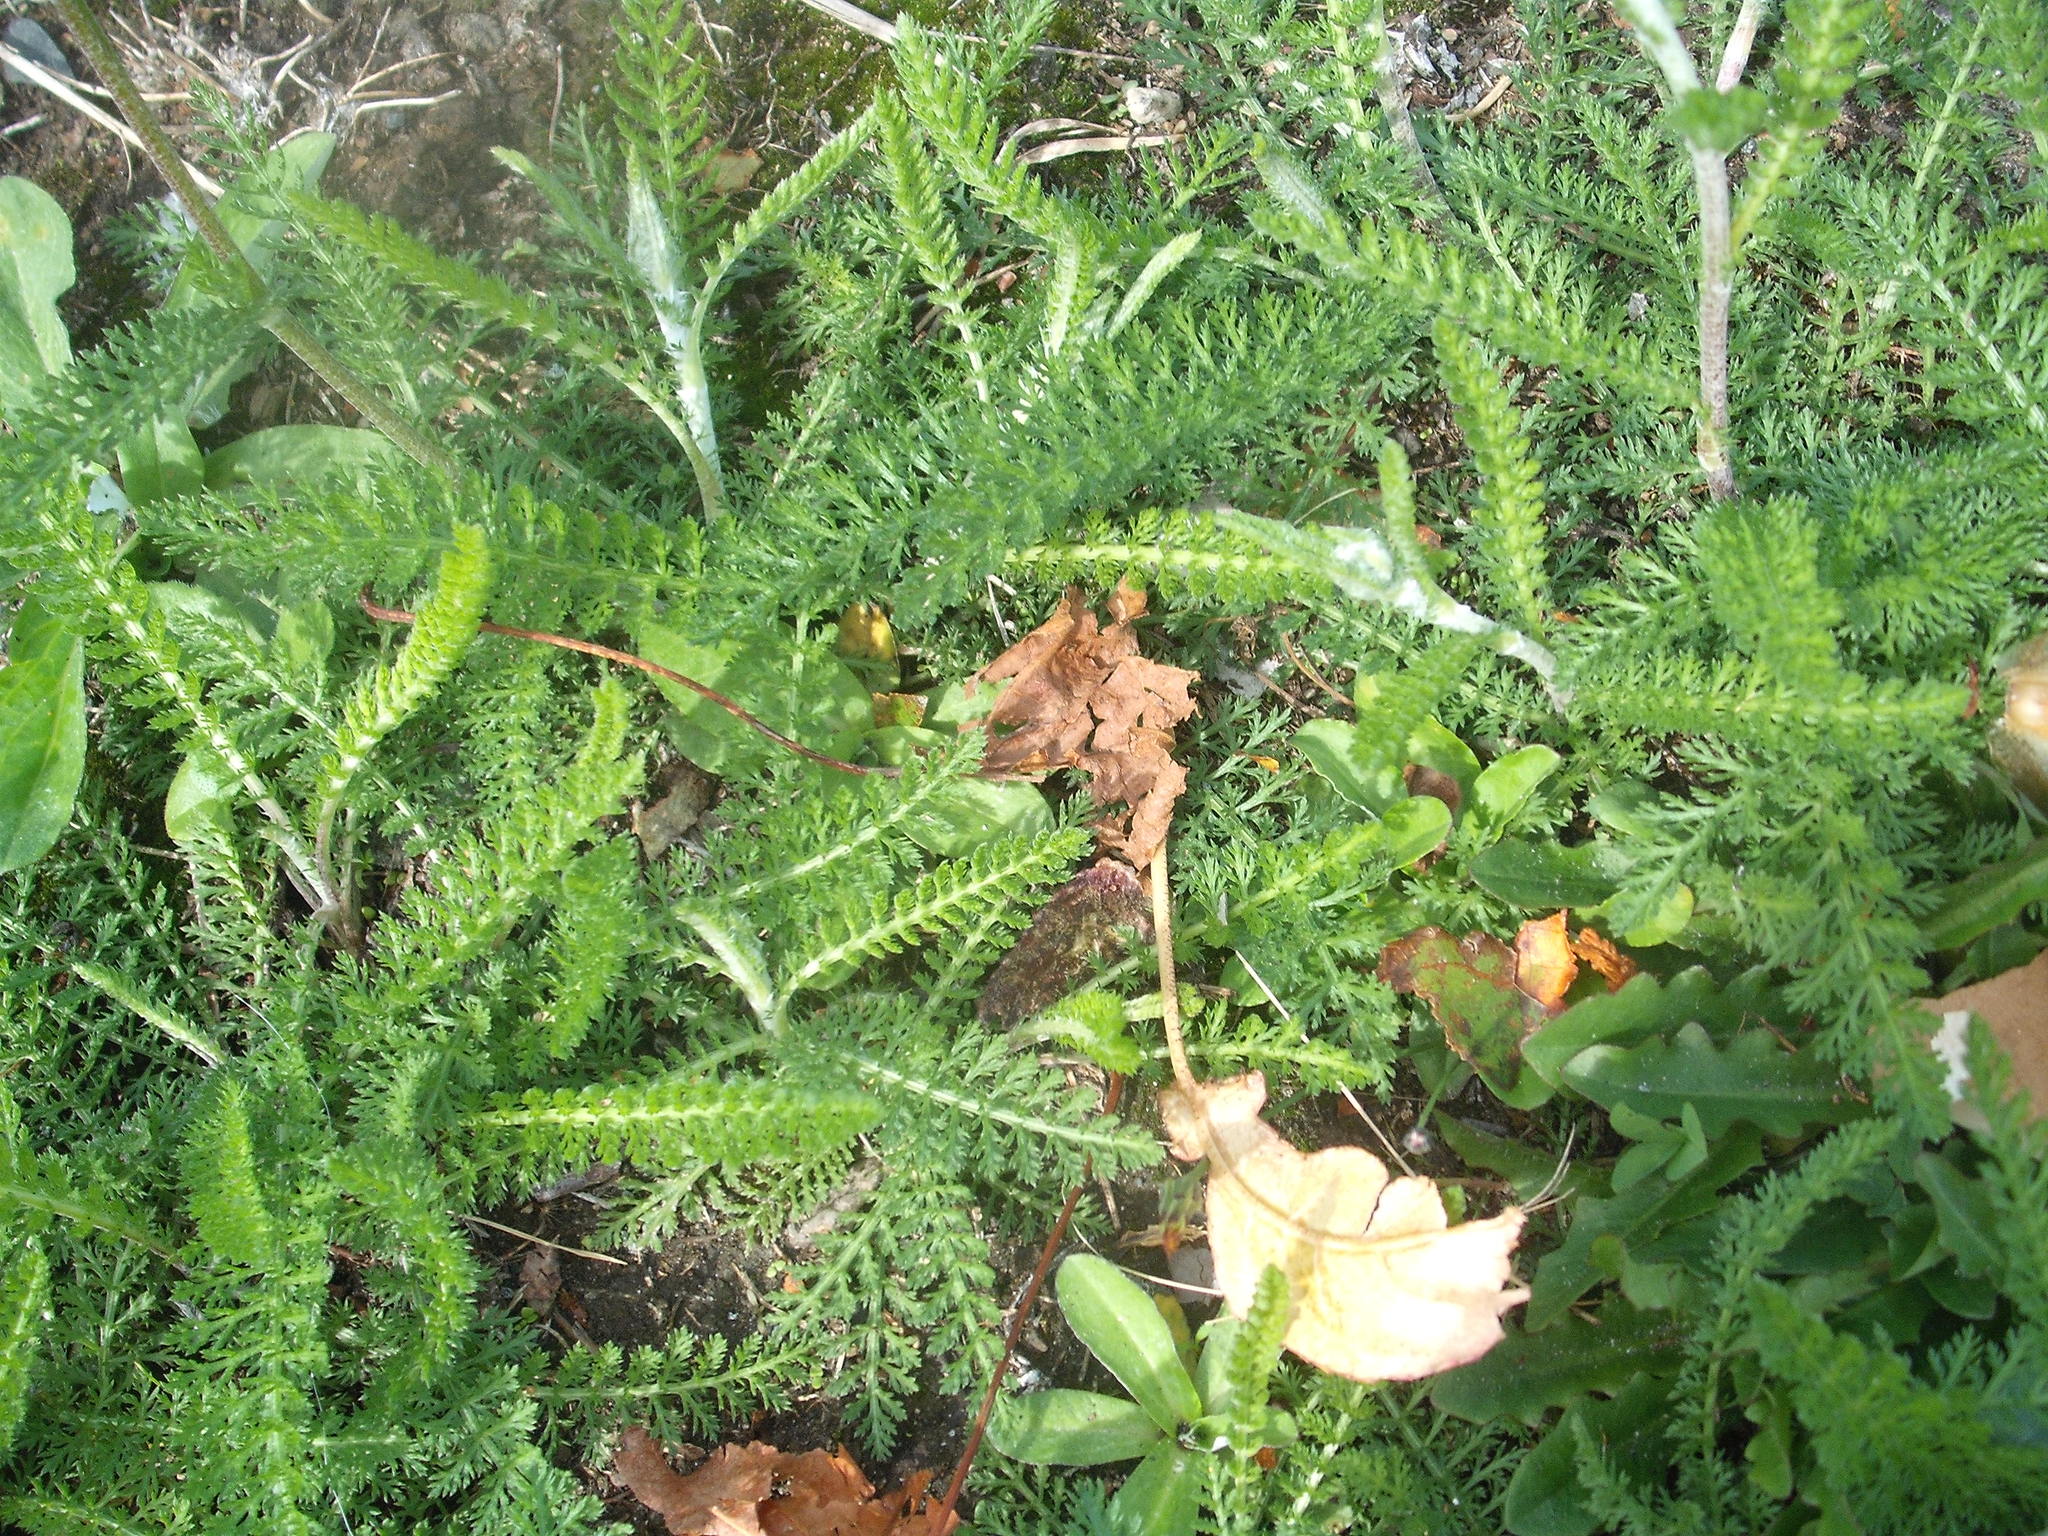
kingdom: Plantae
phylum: Tracheophyta
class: Magnoliopsida
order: Asterales
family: Asteraceae
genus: Achillea
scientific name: Achillea millefolium
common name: Yarrow
